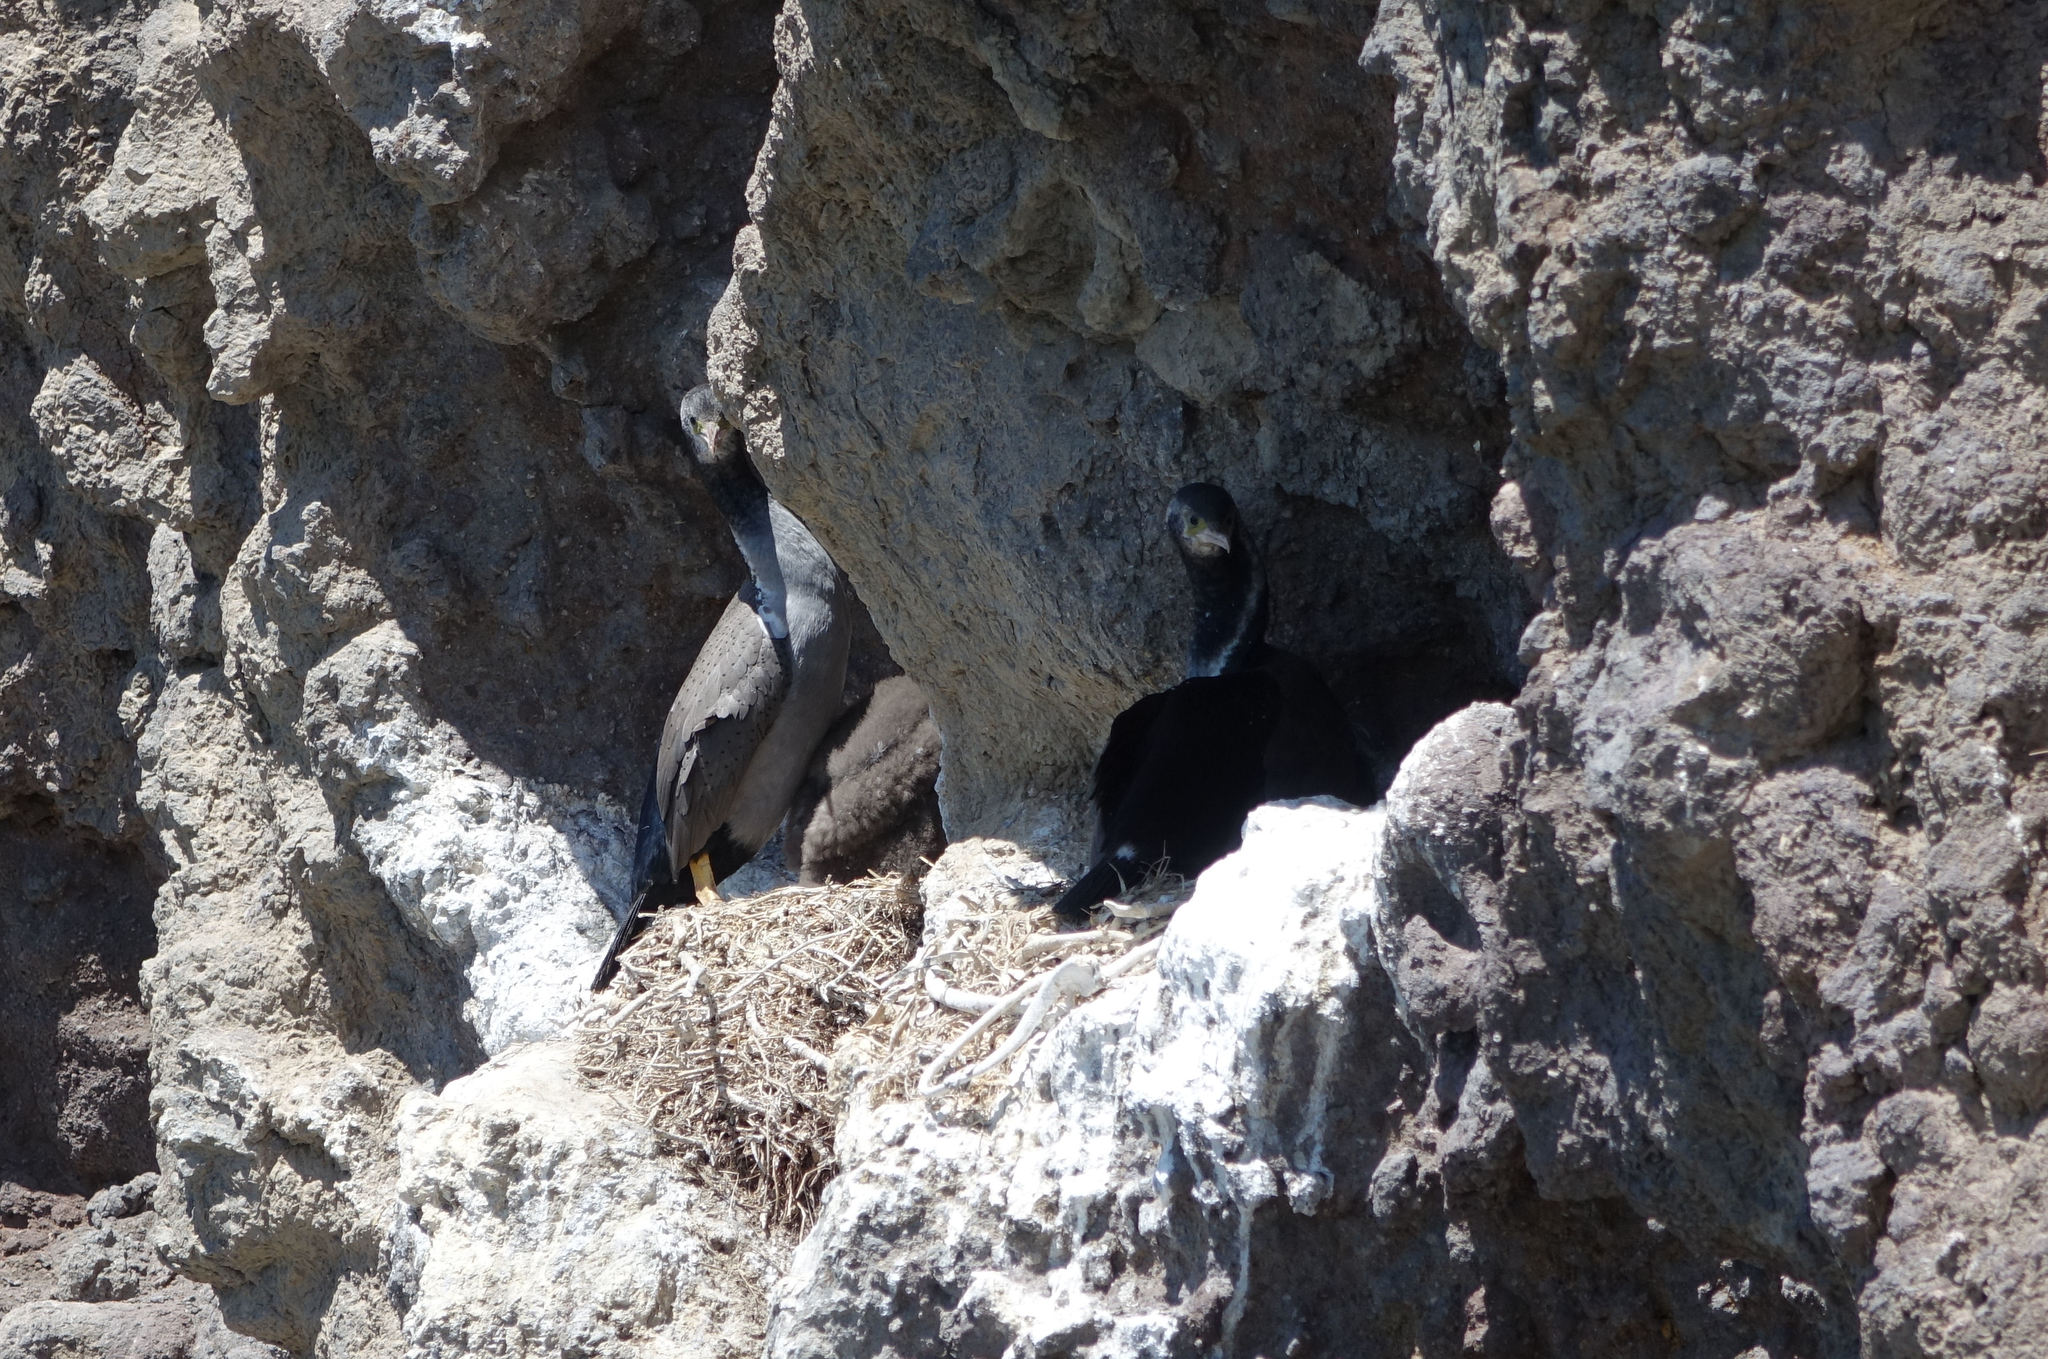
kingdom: Animalia
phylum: Chordata
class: Aves
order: Suliformes
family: Phalacrocoracidae
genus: Phalacrocorax
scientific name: Phalacrocorax punctatus
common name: Spotted shag
